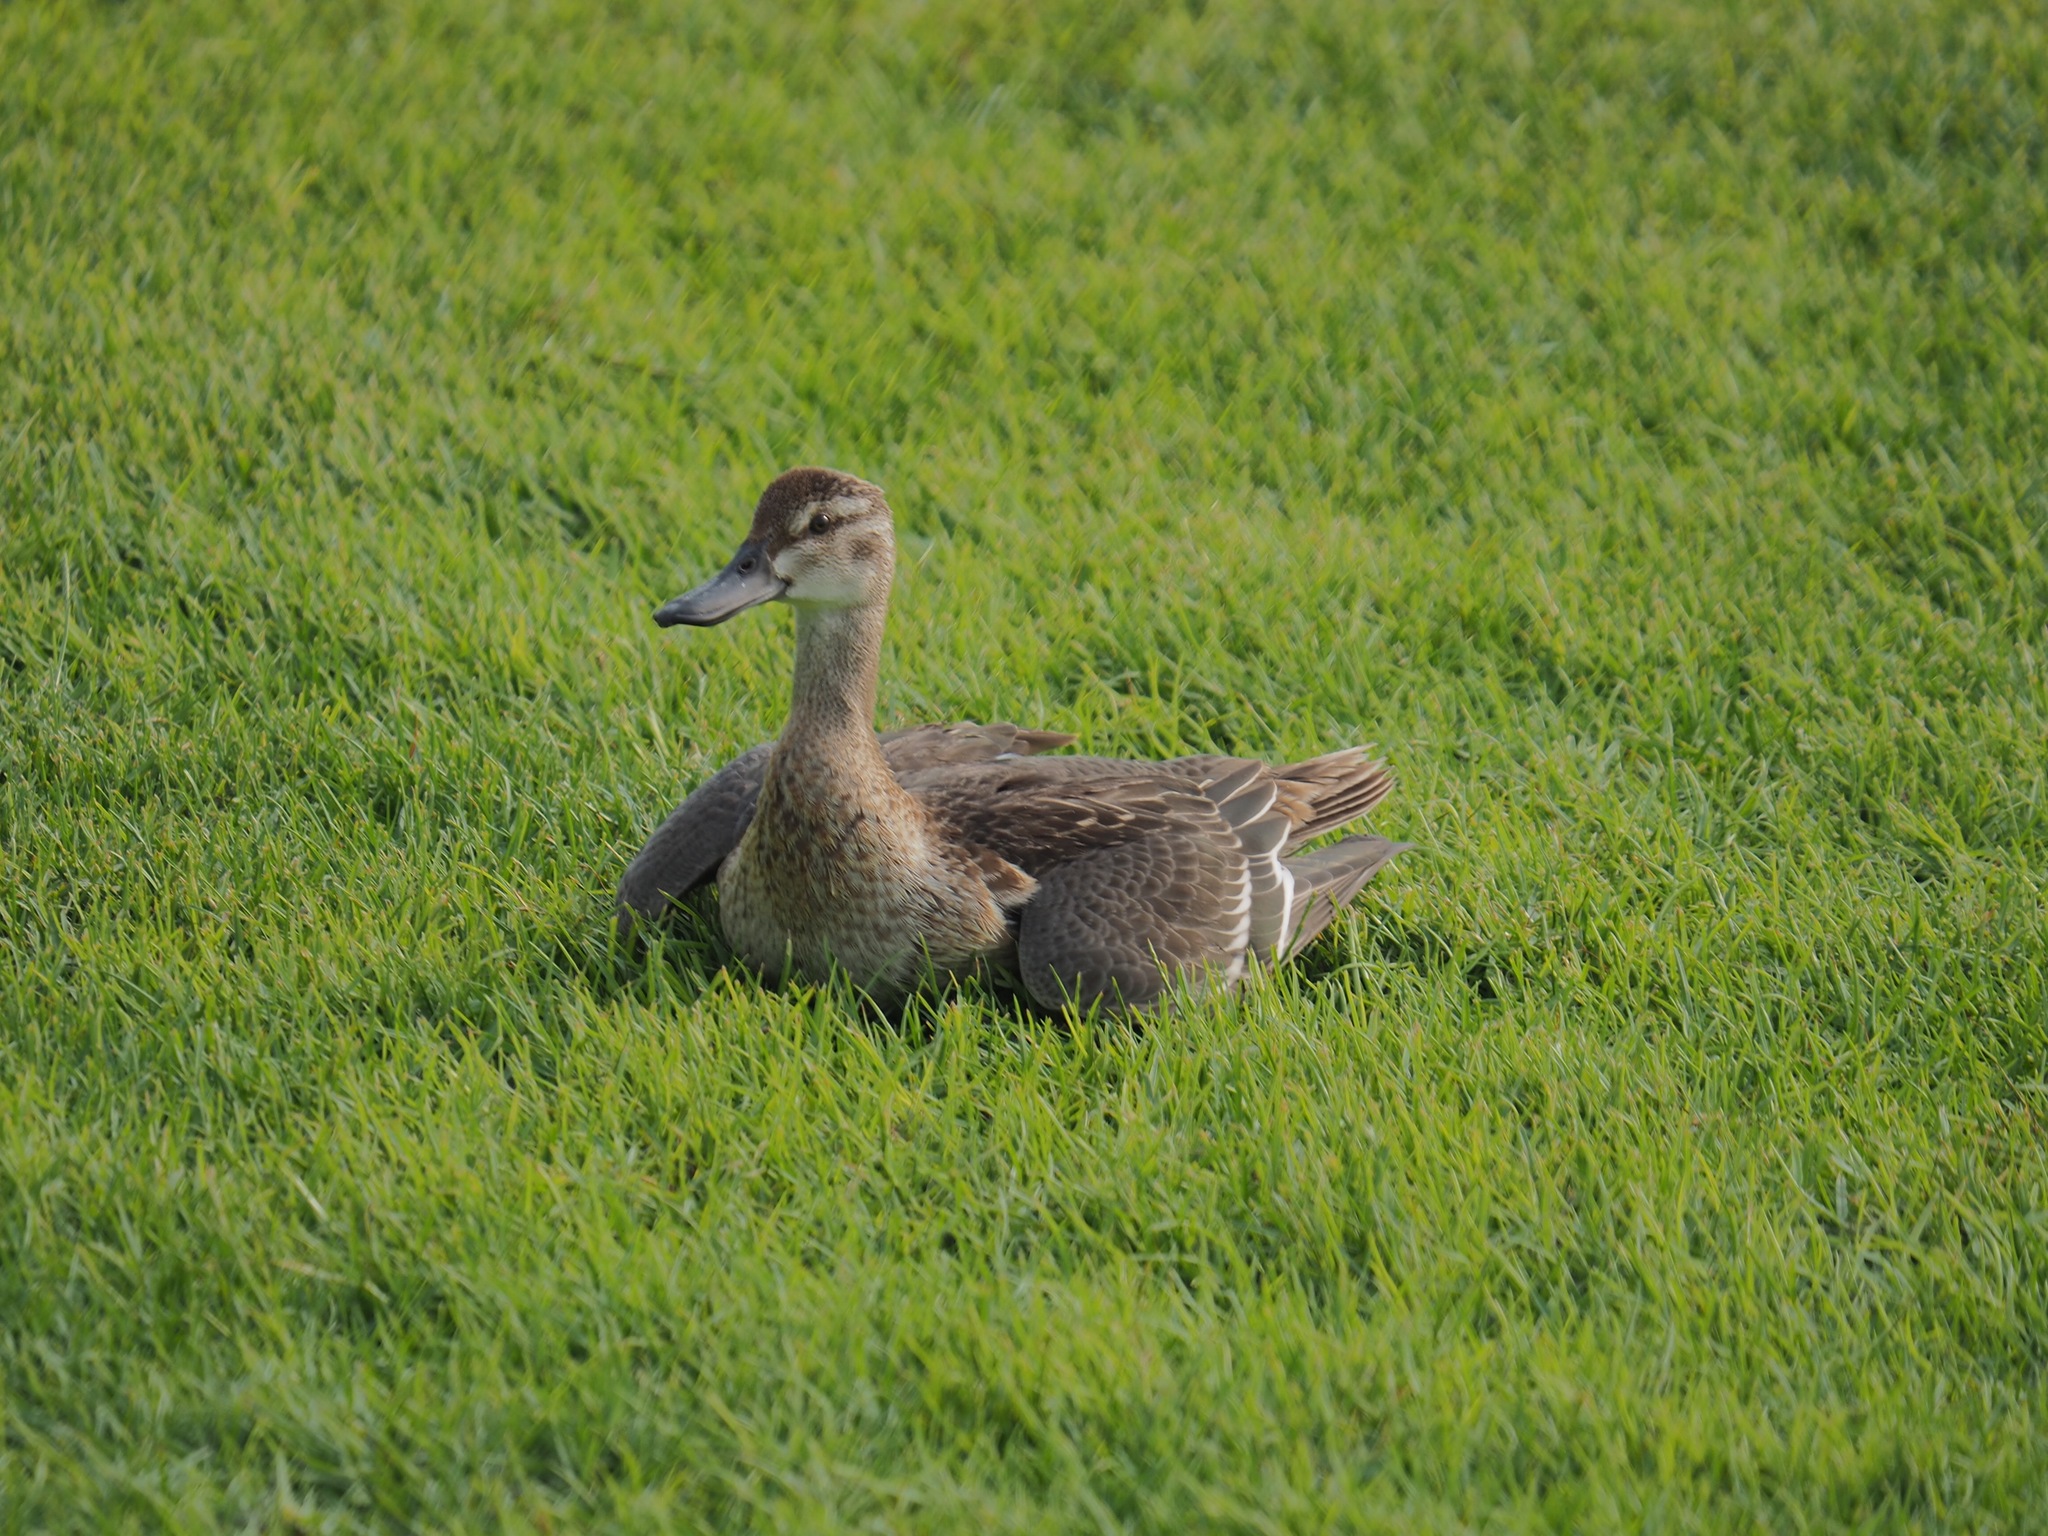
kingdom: Animalia
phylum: Chordata
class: Aves
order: Anseriformes
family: Anatidae
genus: Spatula
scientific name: Spatula querquedula
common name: Garganey
